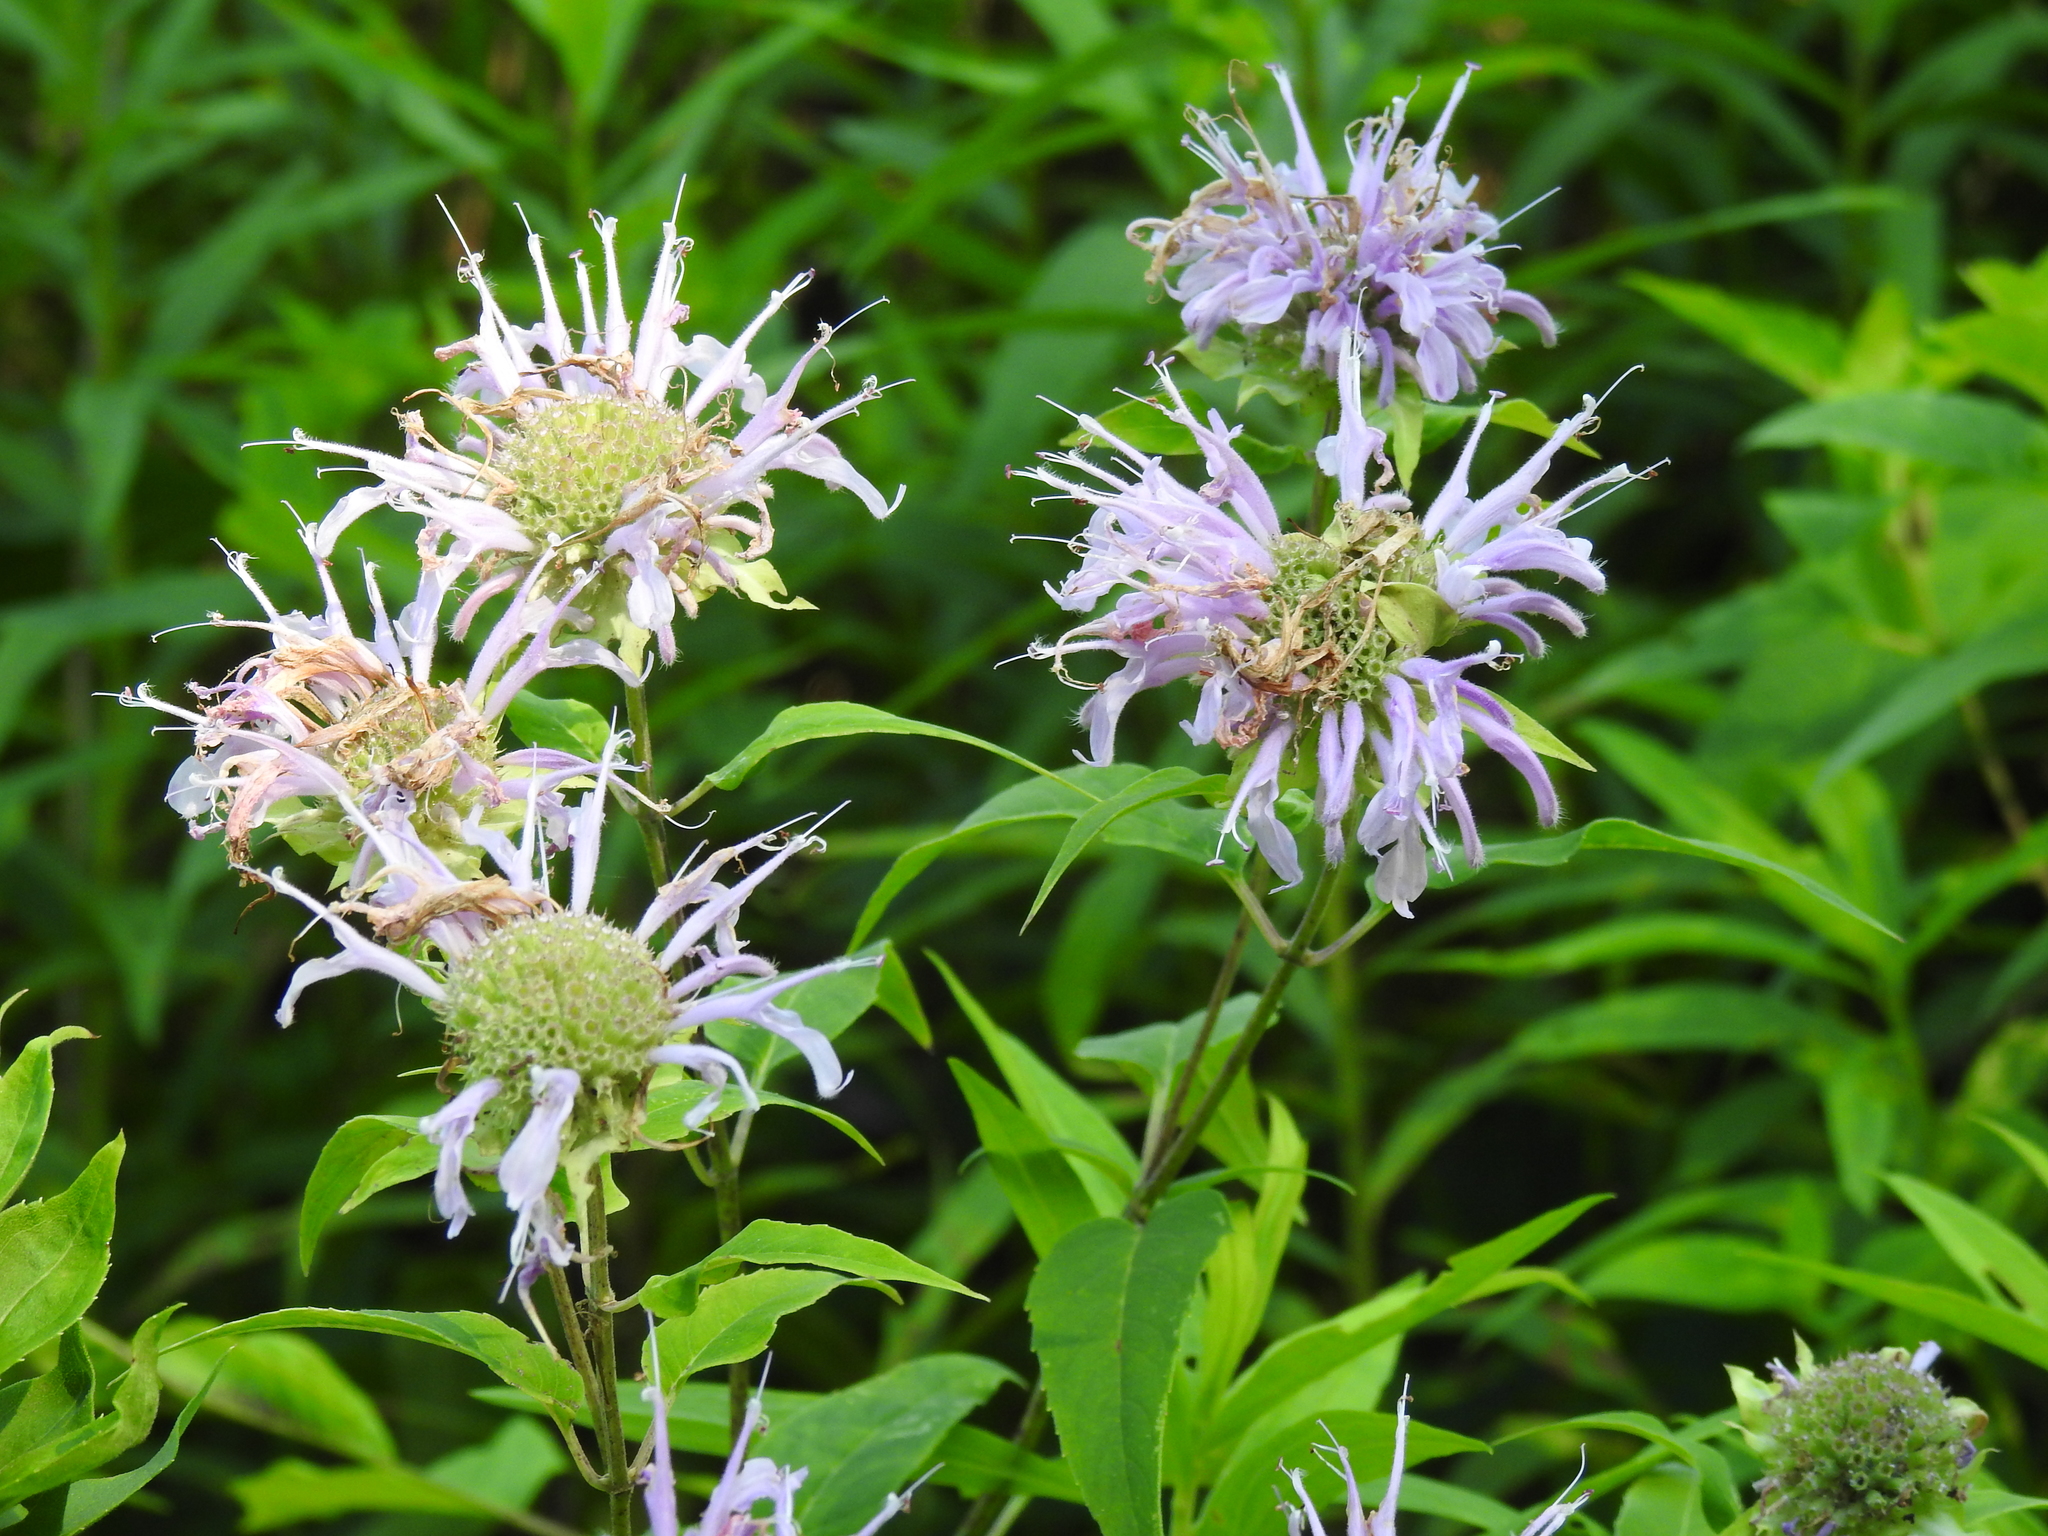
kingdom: Plantae
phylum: Tracheophyta
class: Magnoliopsida
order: Lamiales
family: Lamiaceae
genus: Monarda
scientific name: Monarda fistulosa
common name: Purple beebalm
